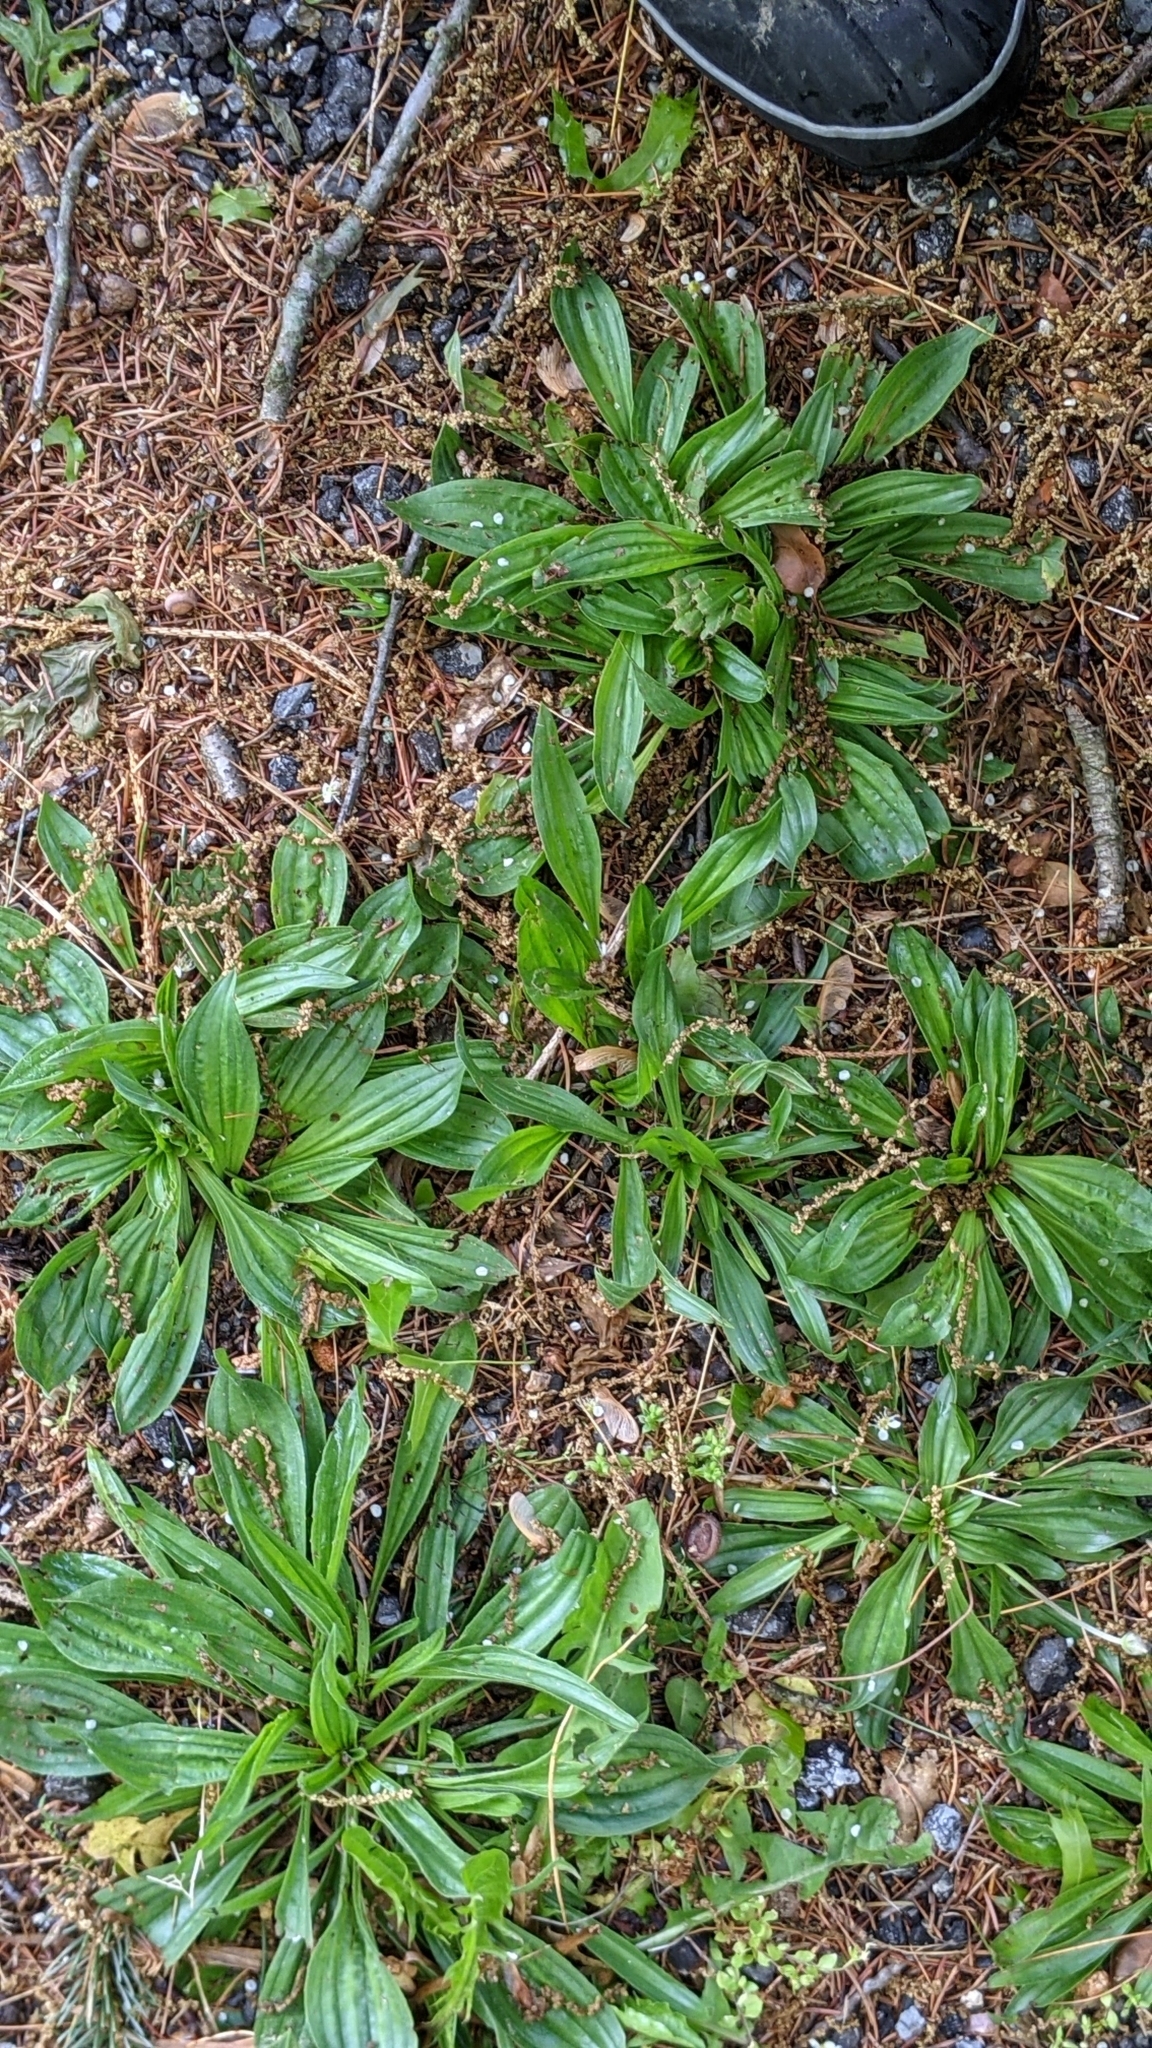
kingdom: Plantae
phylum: Tracheophyta
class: Magnoliopsida
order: Lamiales
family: Plantaginaceae
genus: Plantago
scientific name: Plantago lanceolata
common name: Ribwort plantain
